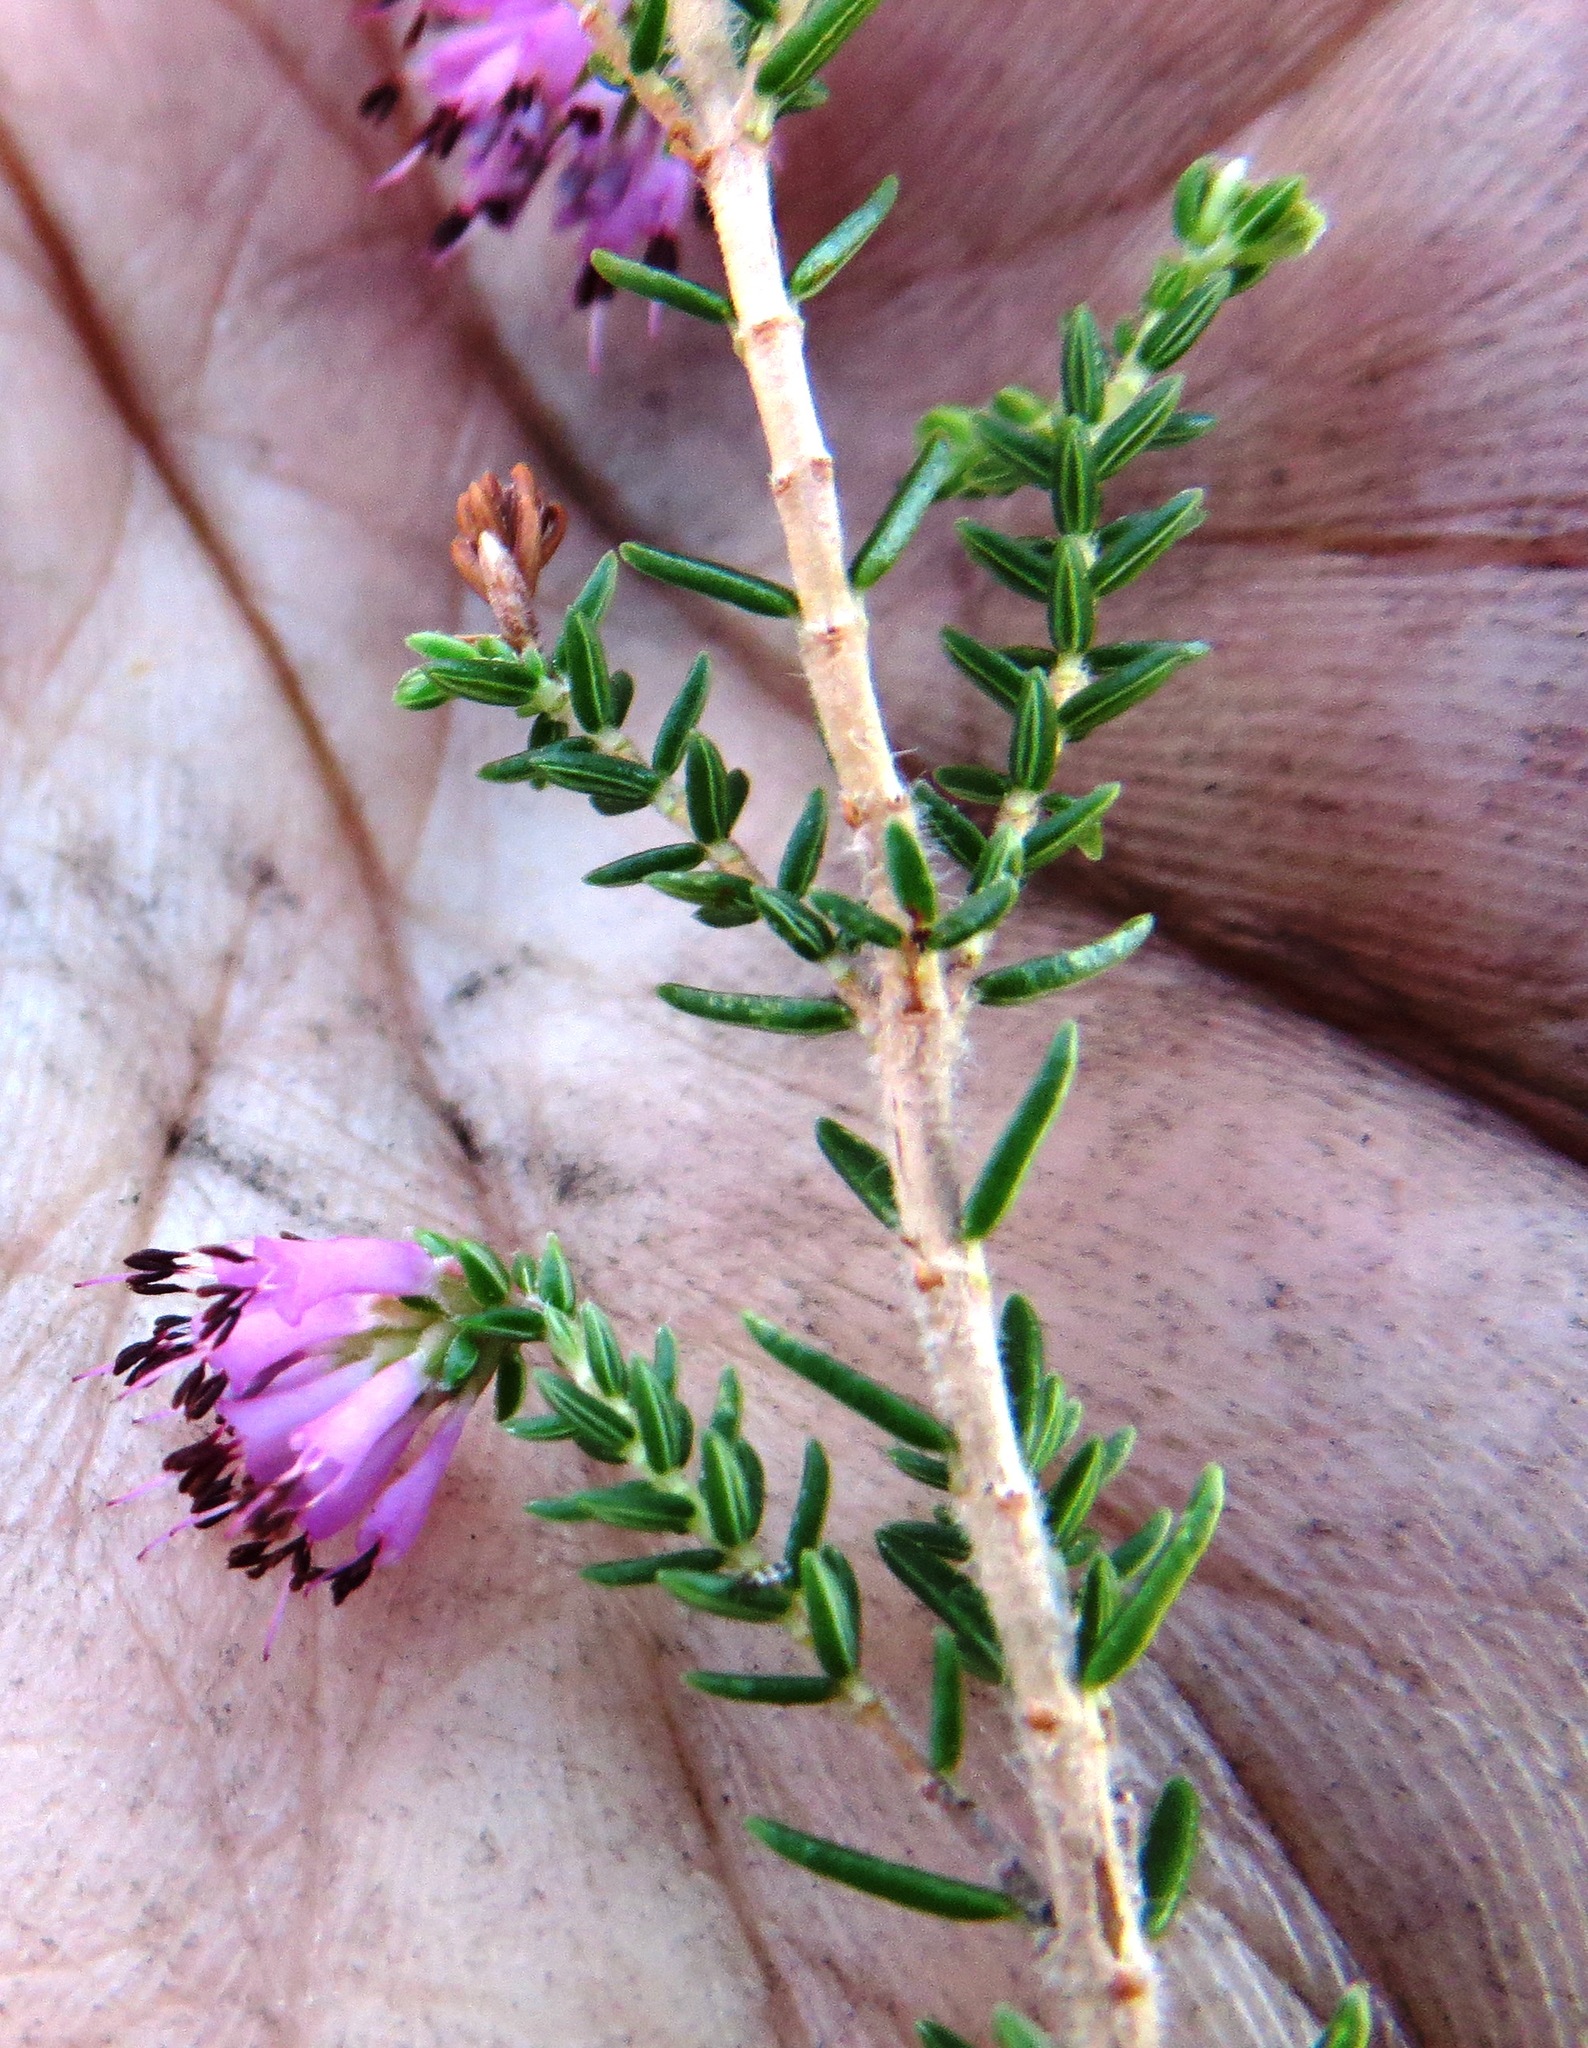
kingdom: Plantae
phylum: Tracheophyta
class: Magnoliopsida
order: Ericales
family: Ericaceae
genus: Erica
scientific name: Erica labialis
